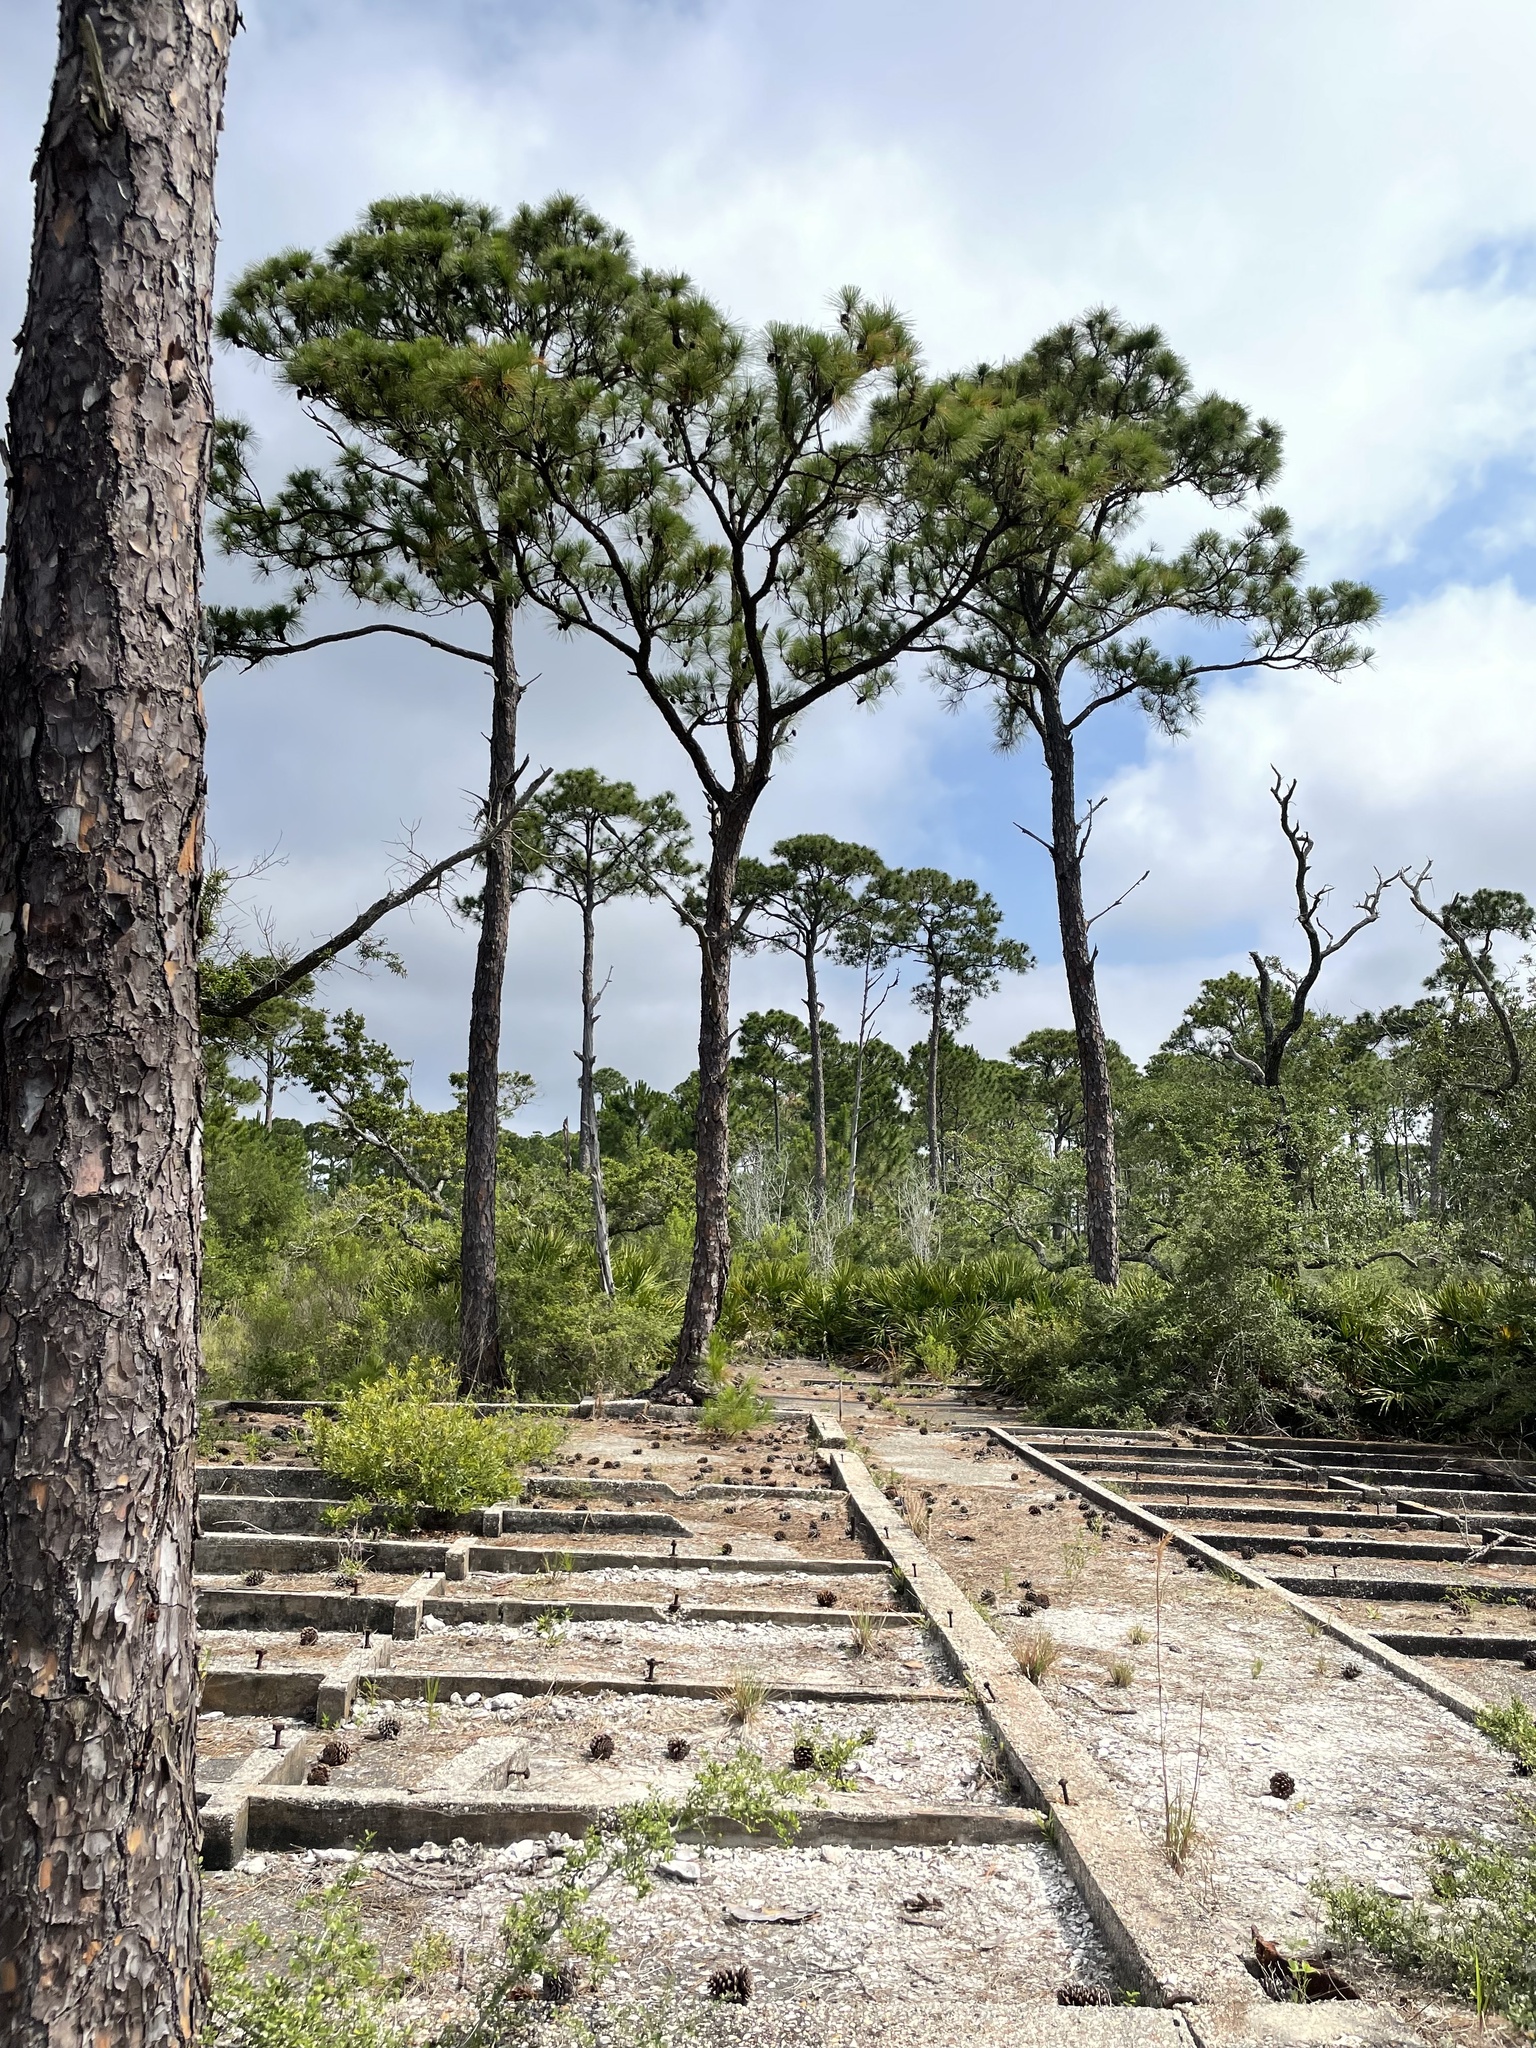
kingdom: Plantae
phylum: Tracheophyta
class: Pinopsida
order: Pinales
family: Pinaceae
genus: Pinus
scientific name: Pinus elliottii
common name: Slash pine
